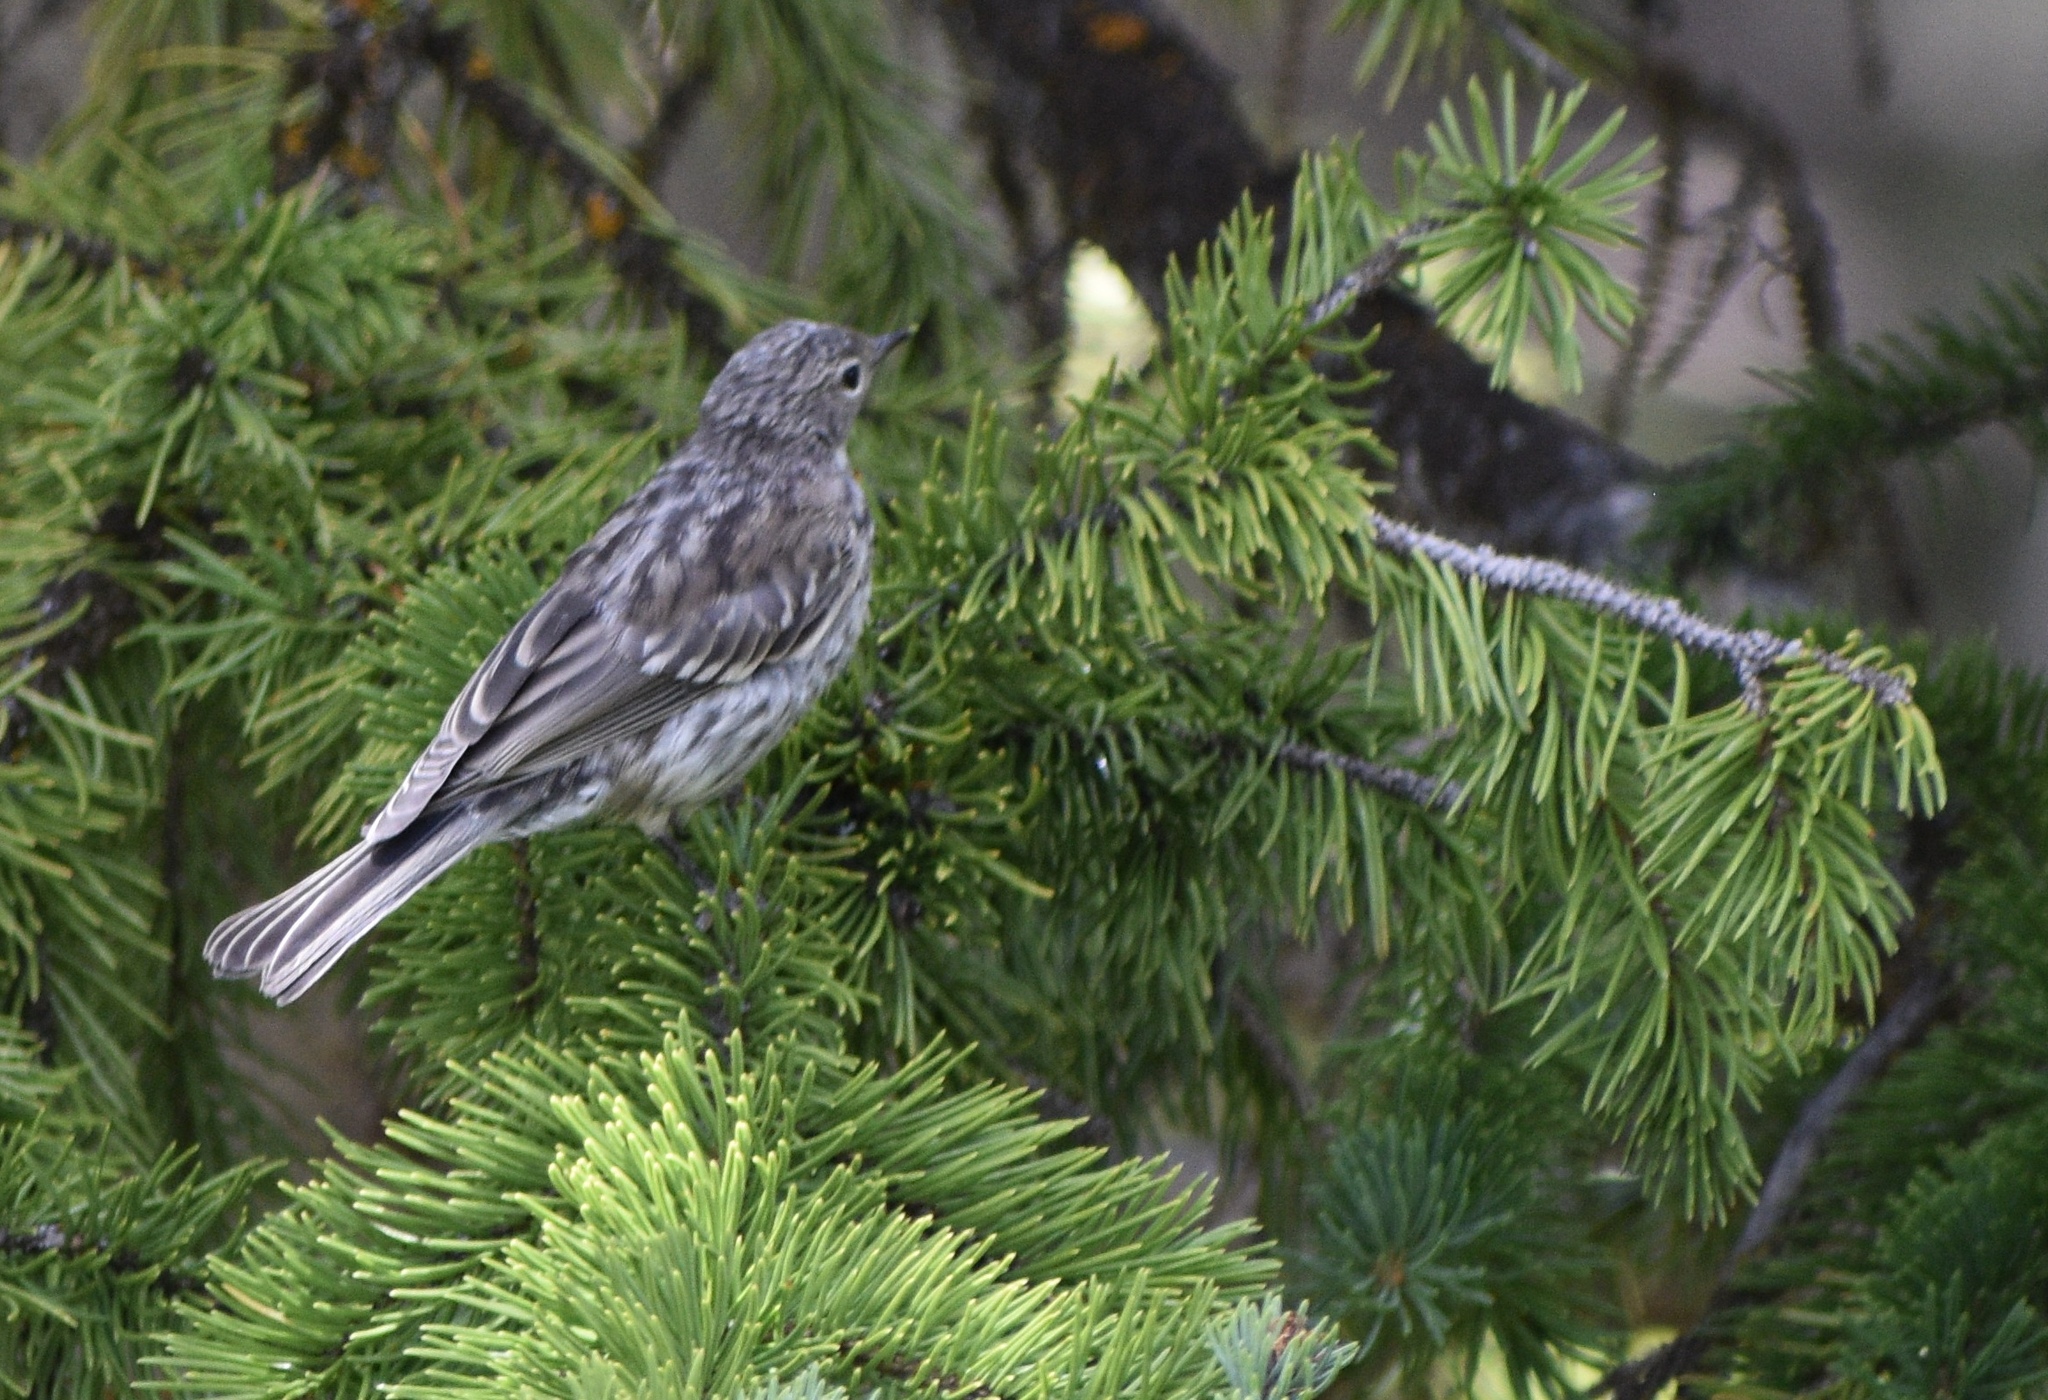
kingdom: Animalia
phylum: Chordata
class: Aves
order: Passeriformes
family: Parulidae
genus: Setophaga
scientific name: Setophaga coronata
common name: Myrtle warbler
